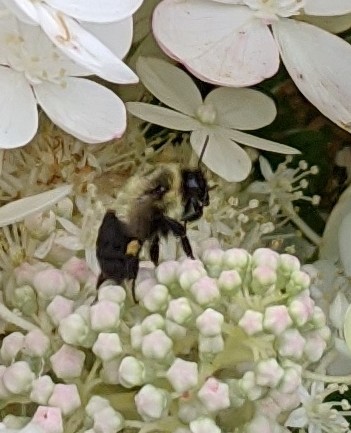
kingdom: Animalia
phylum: Arthropoda
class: Insecta
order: Hymenoptera
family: Apidae
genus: Bombus
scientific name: Bombus impatiens
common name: Common eastern bumble bee
